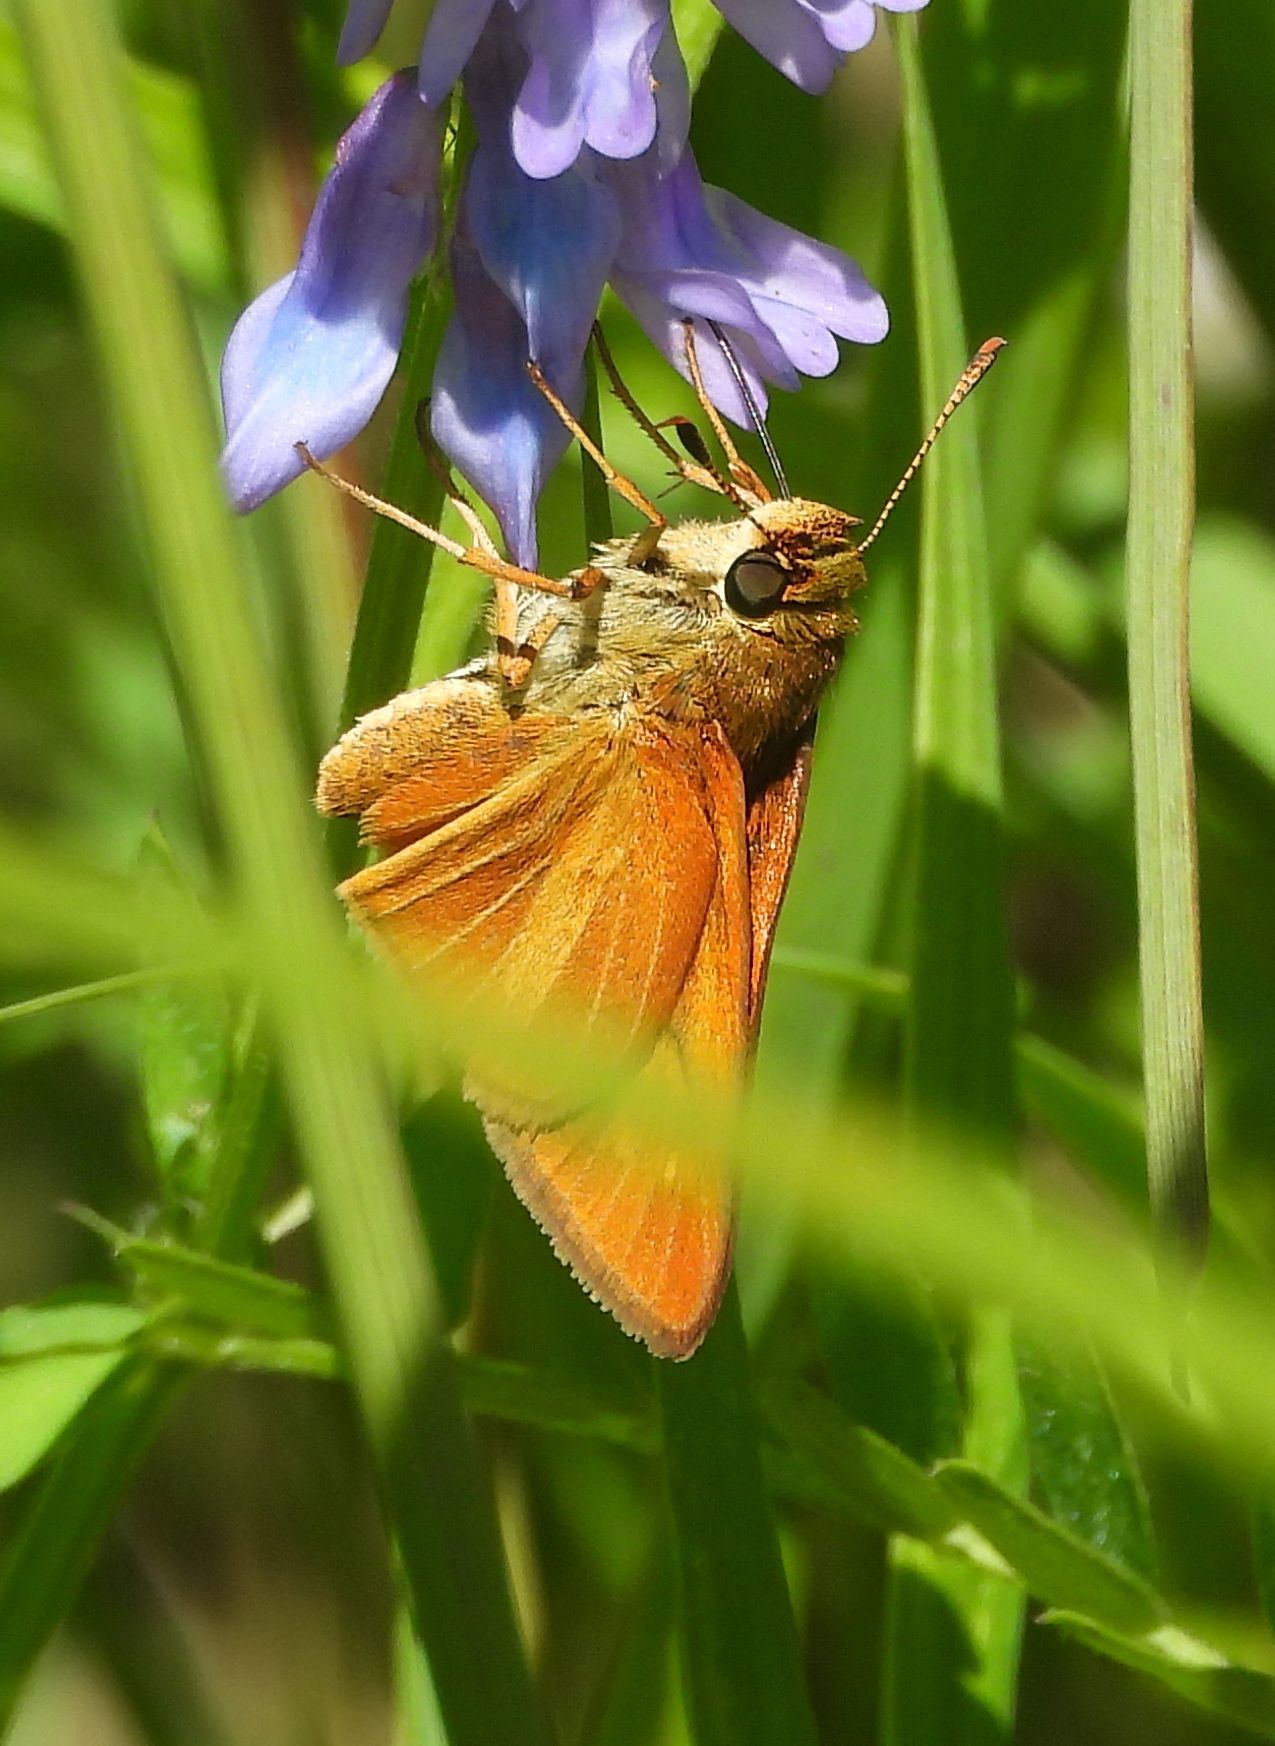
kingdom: Animalia
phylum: Arthropoda
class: Insecta
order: Lepidoptera
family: Hesperiidae
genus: Euphyes
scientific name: Euphyes dion
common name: Dion skipper
